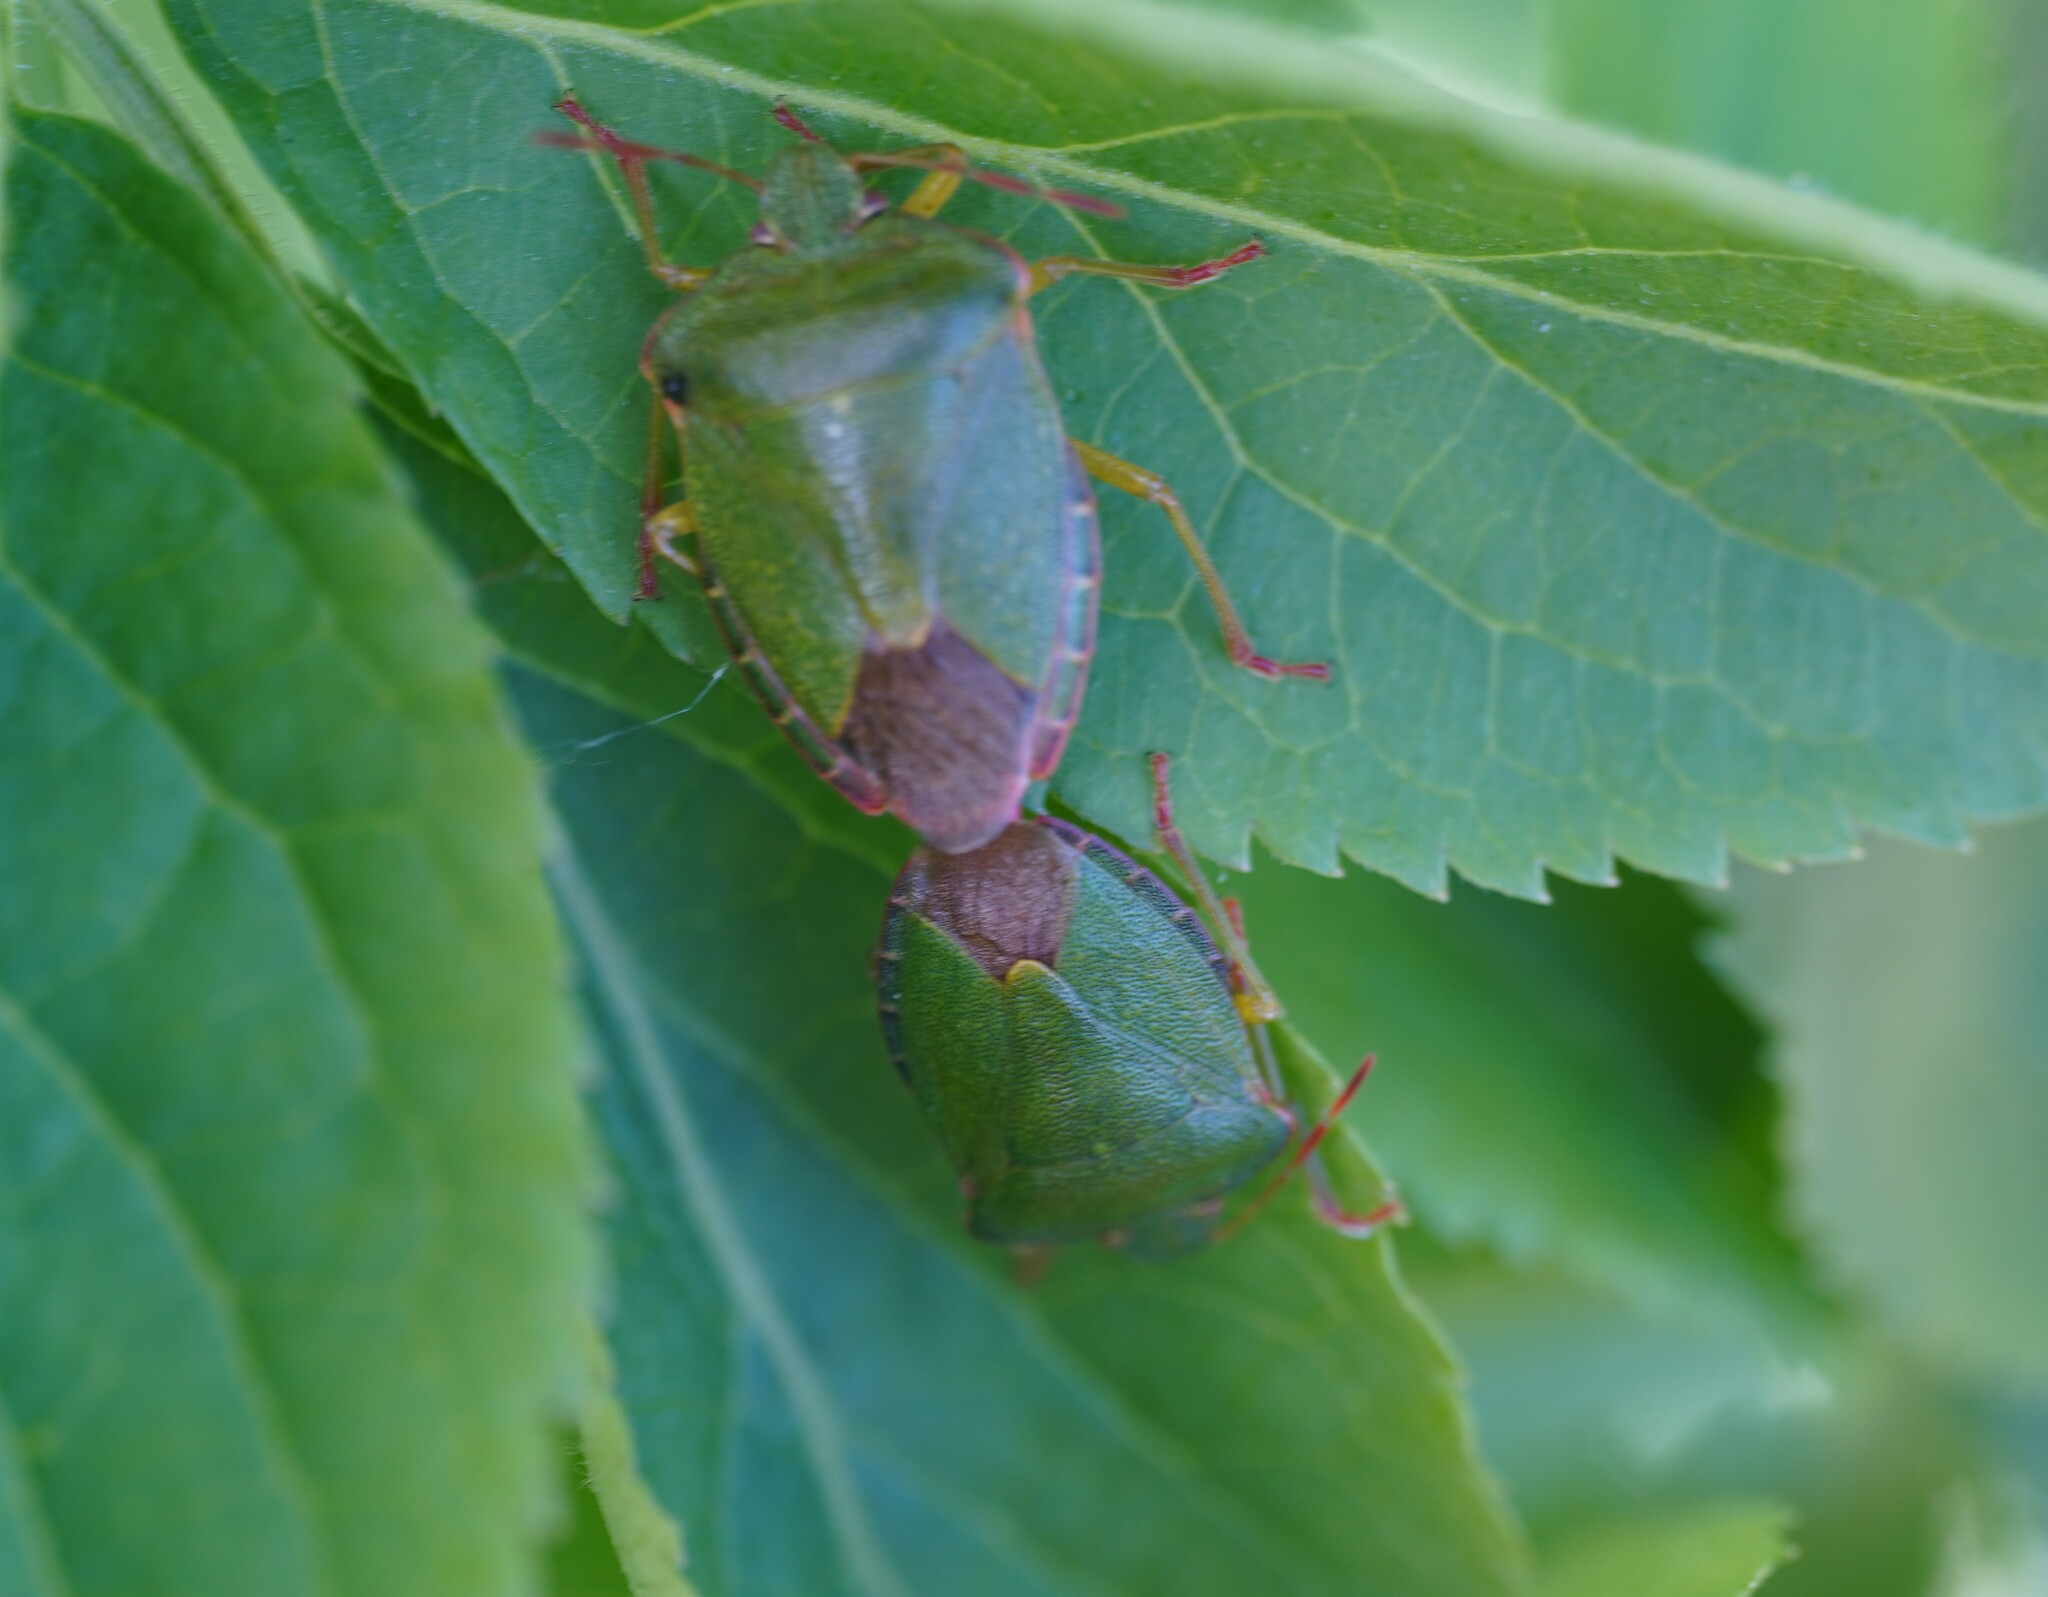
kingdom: Animalia
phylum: Arthropoda
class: Insecta
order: Hemiptera
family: Pentatomidae
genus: Palomena
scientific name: Palomena prasina
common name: Green shieldbug
